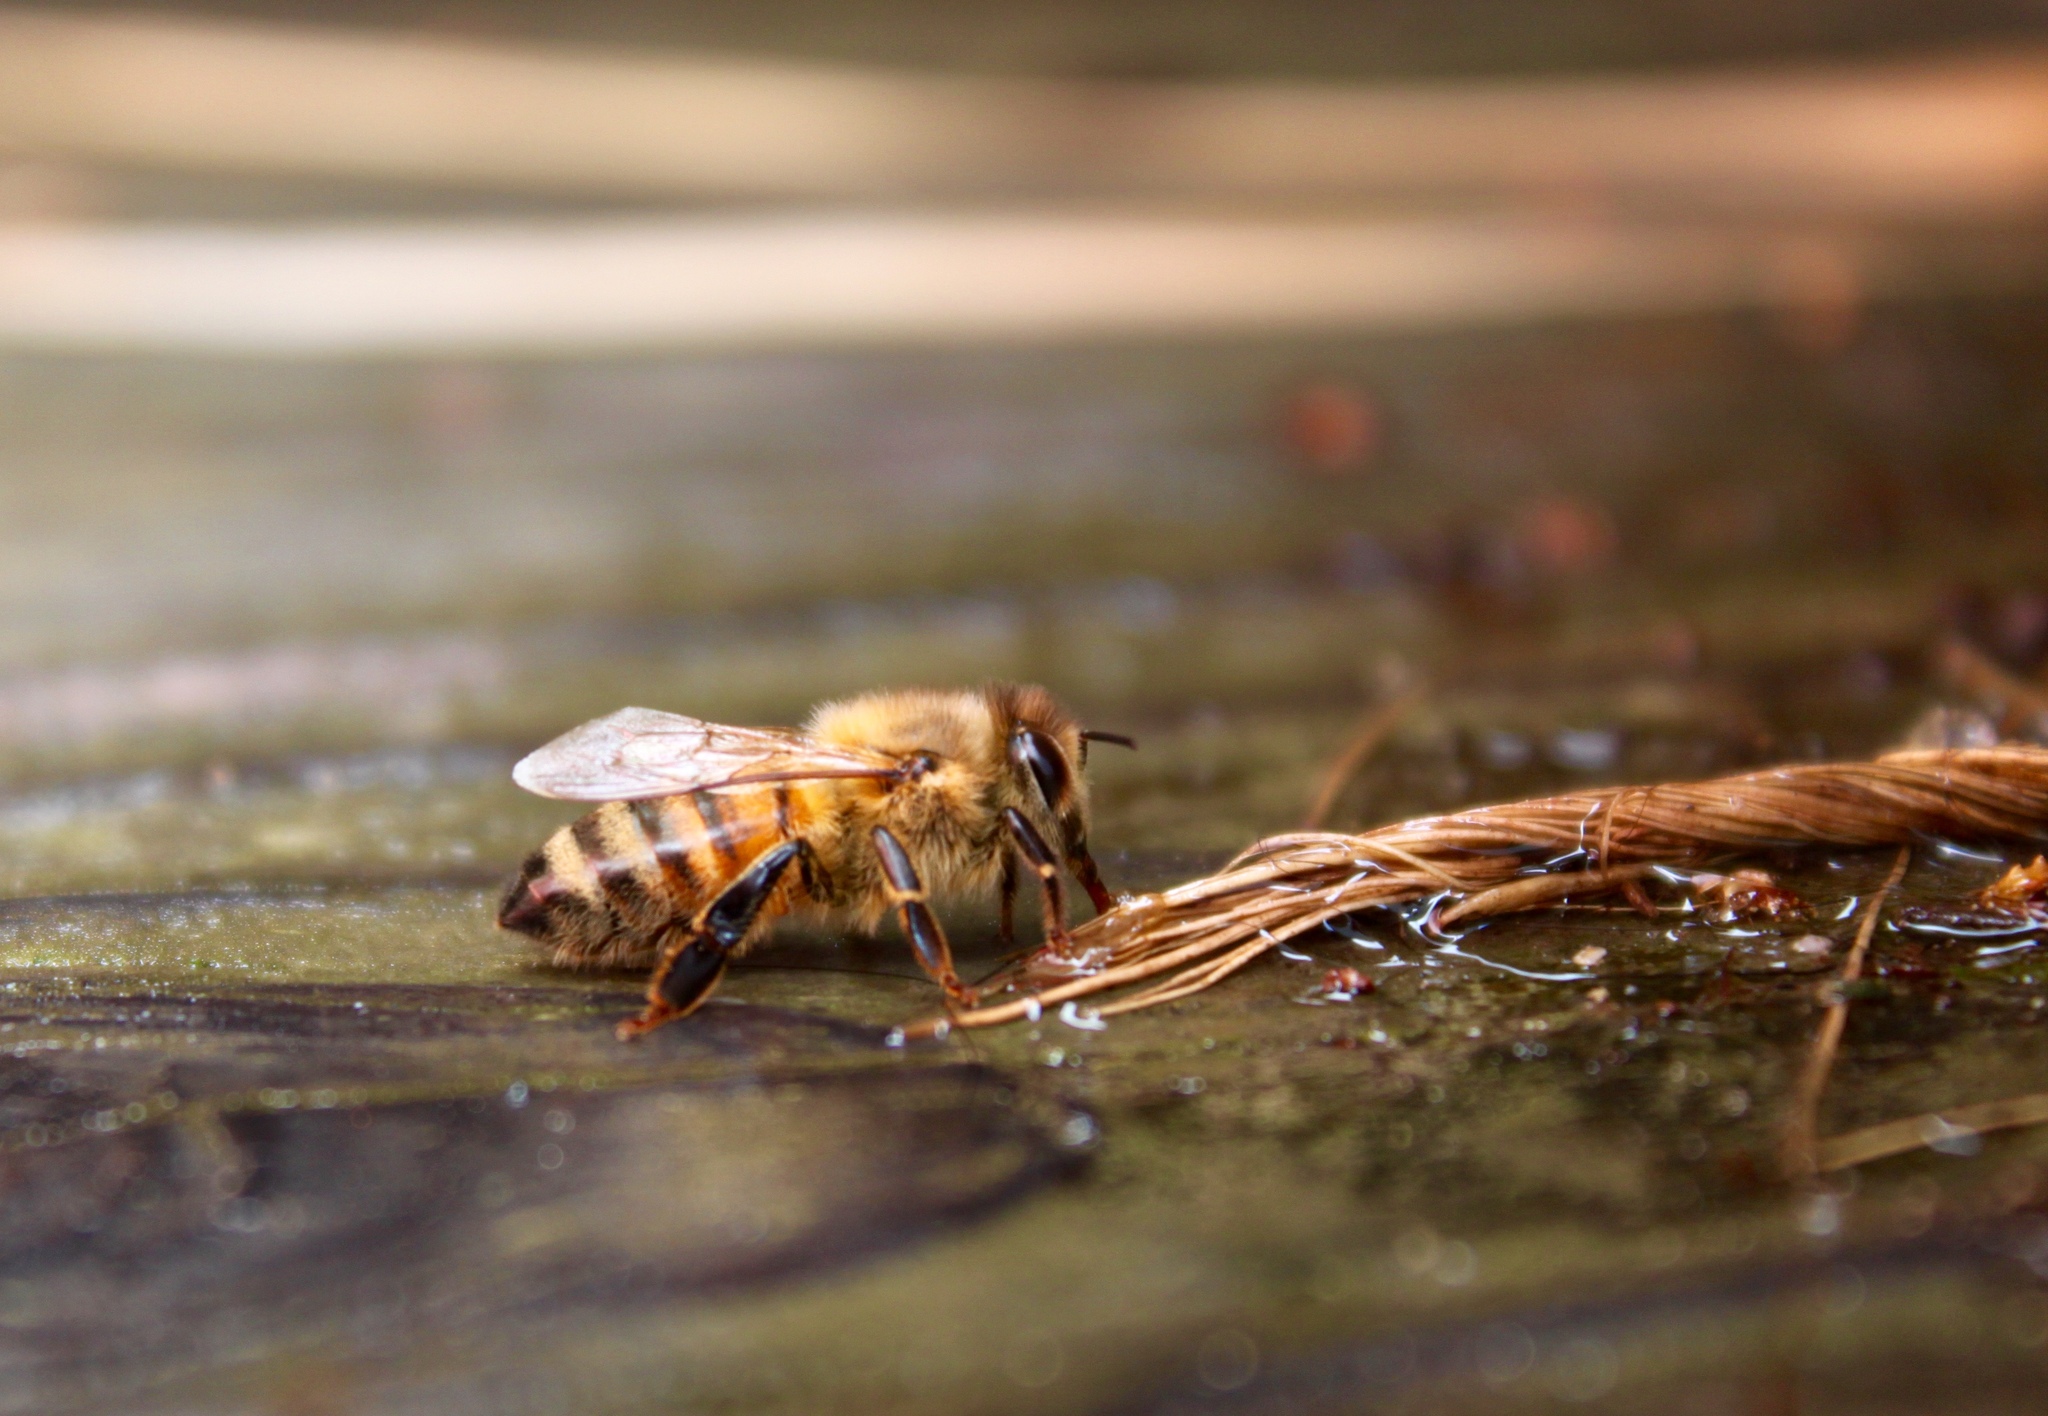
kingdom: Animalia
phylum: Arthropoda
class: Insecta
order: Hymenoptera
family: Apidae
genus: Apis
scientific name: Apis mellifera
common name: Honey bee
